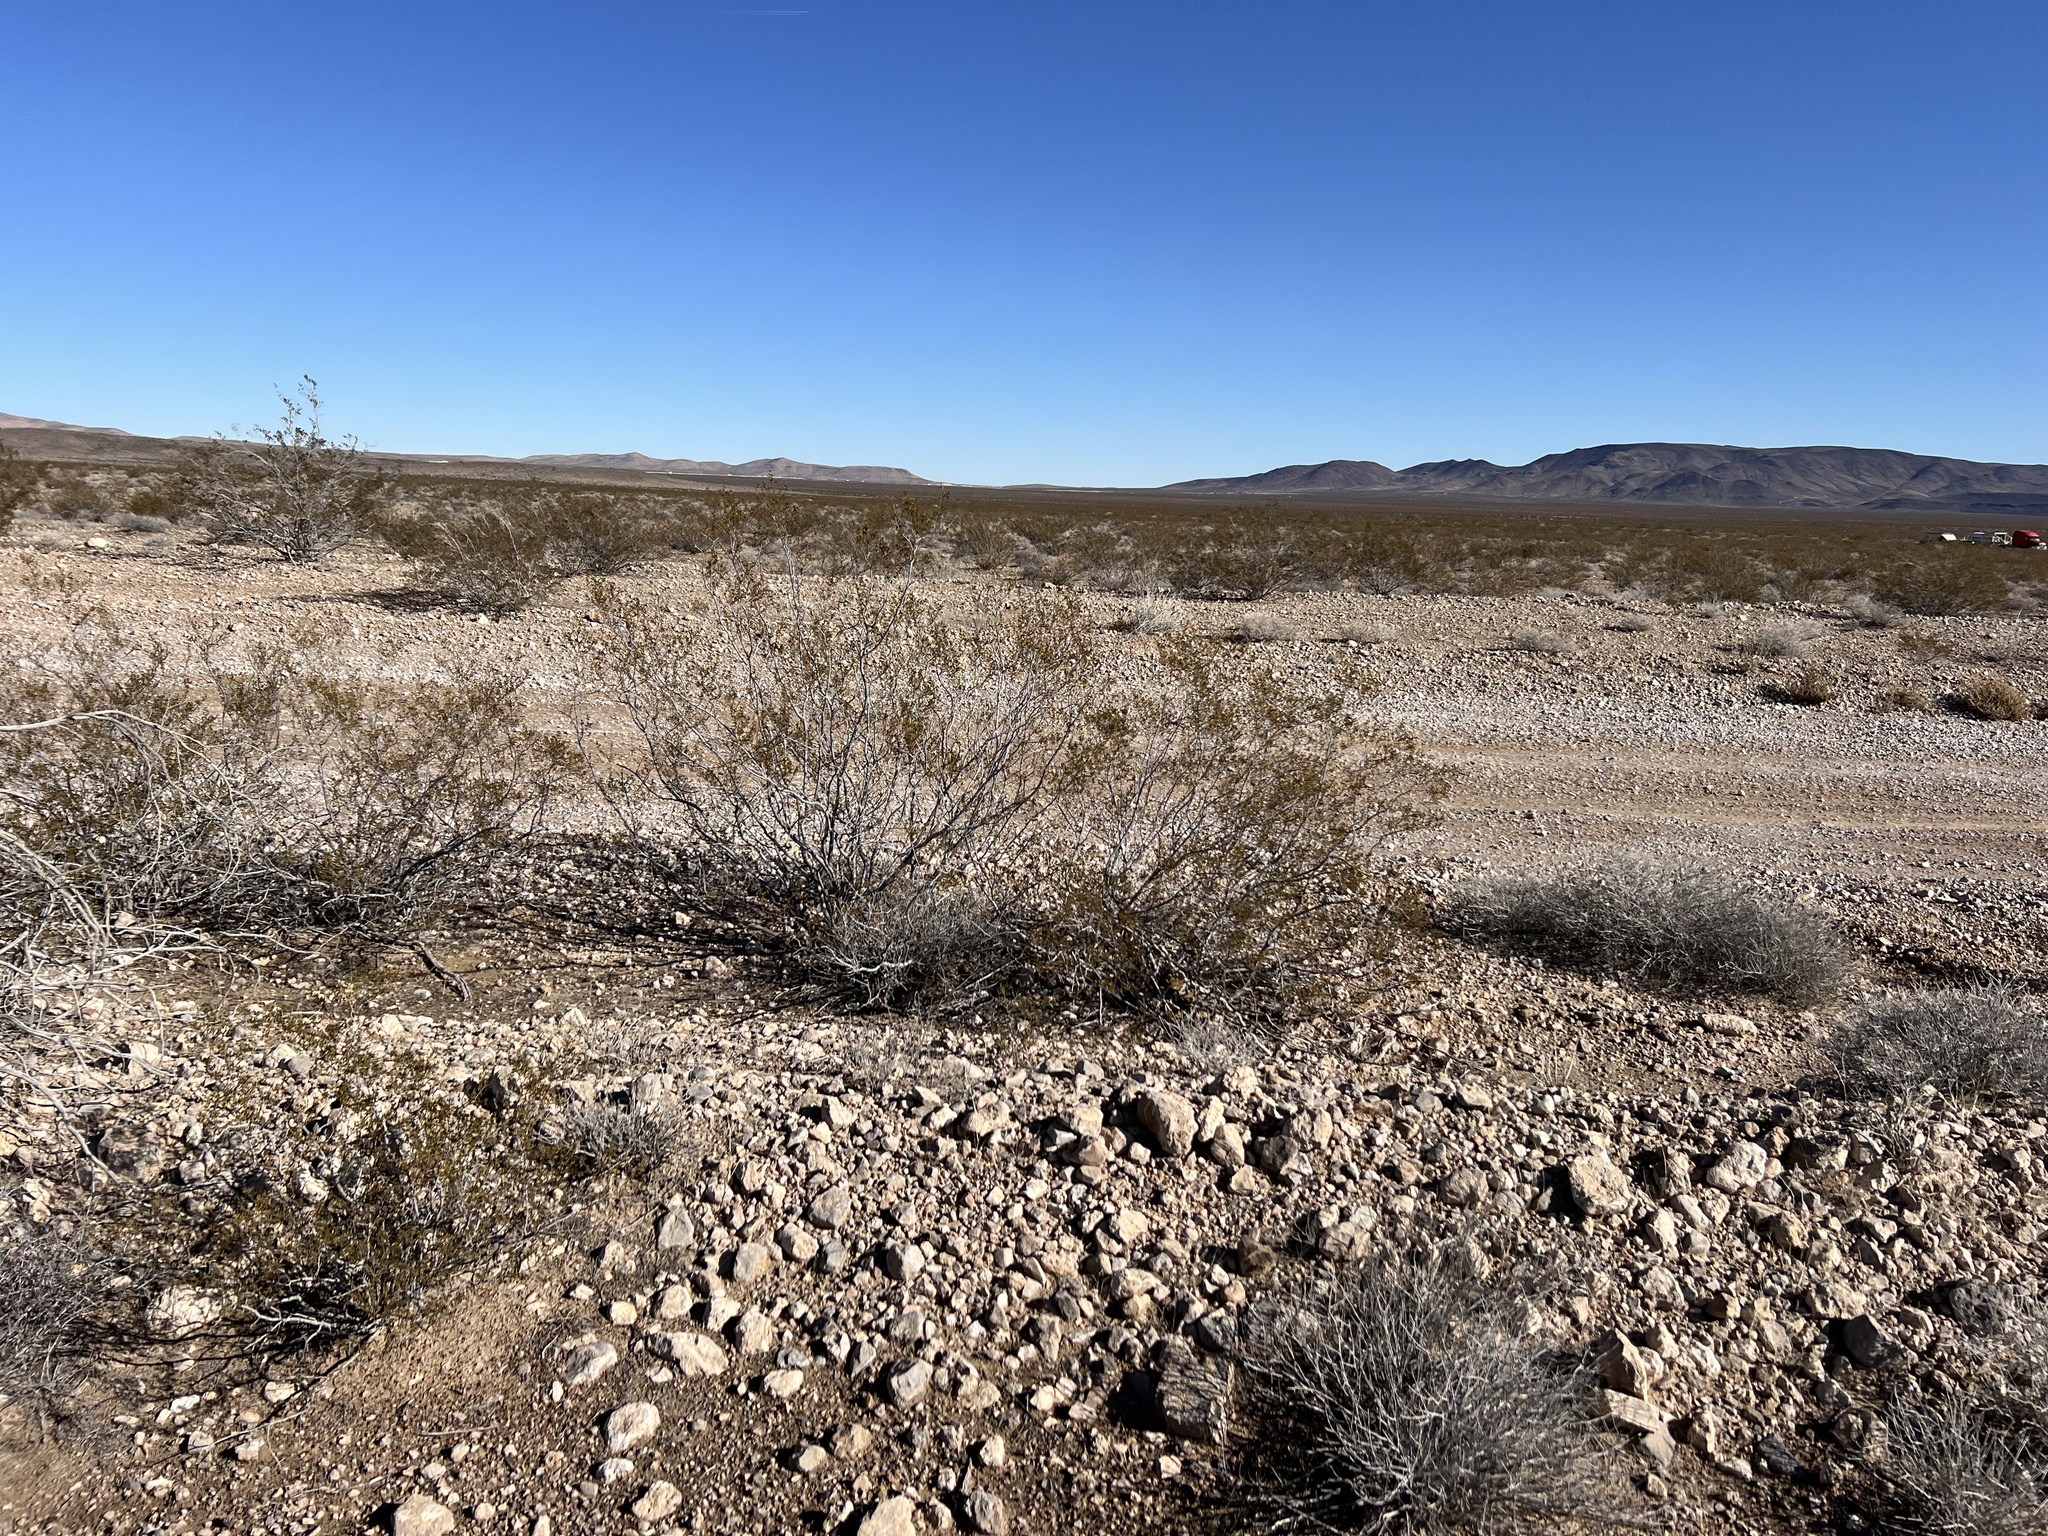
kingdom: Plantae
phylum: Tracheophyta
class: Magnoliopsida
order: Zygophyllales
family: Zygophyllaceae
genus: Larrea
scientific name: Larrea tridentata
